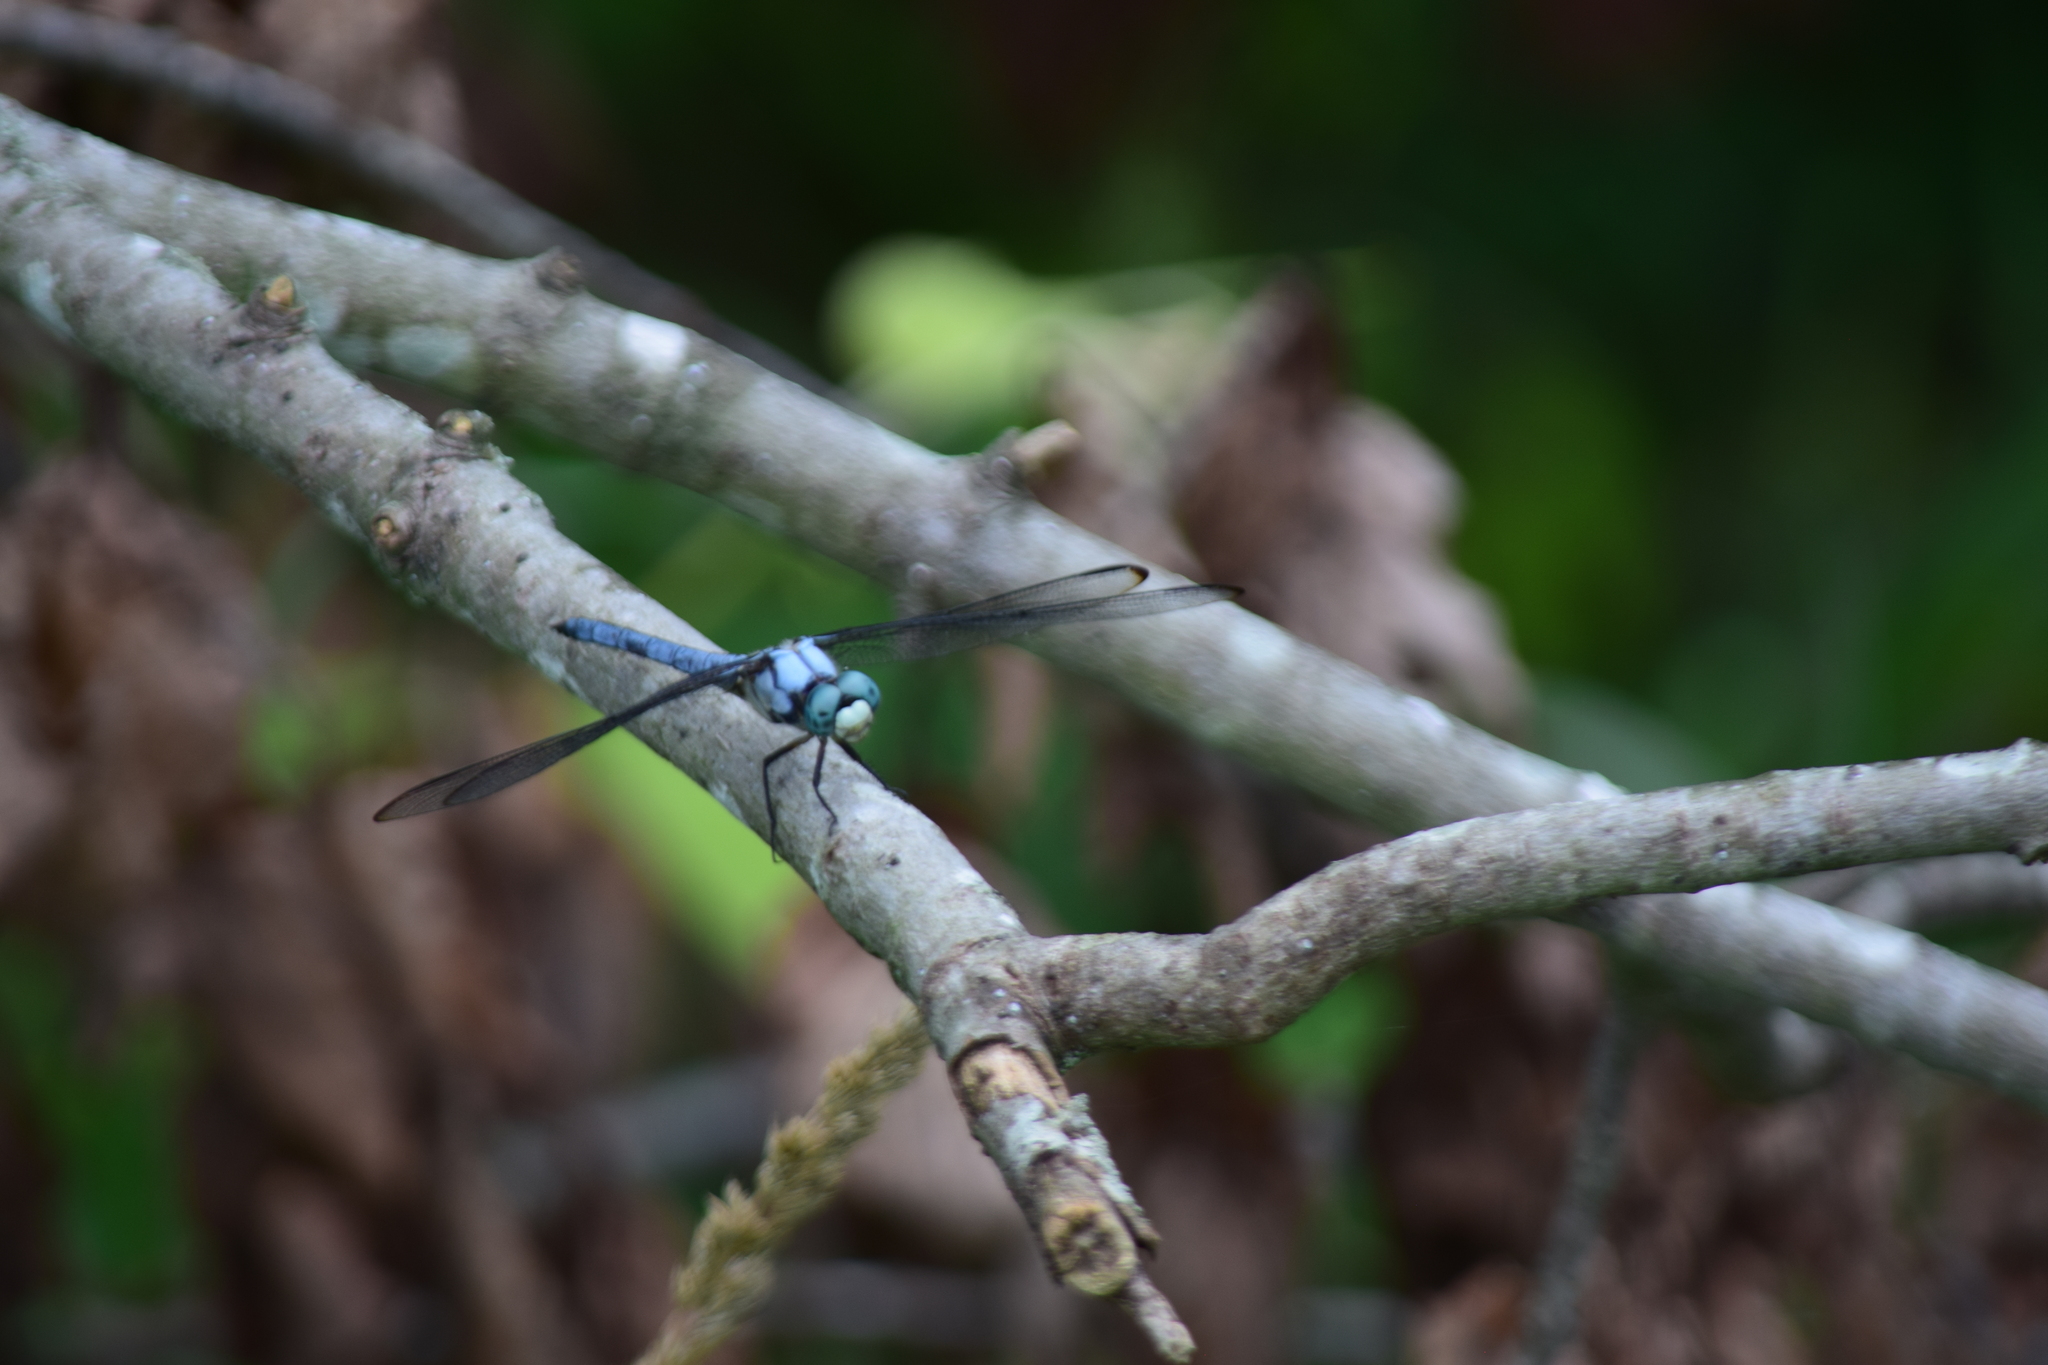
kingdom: Animalia
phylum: Arthropoda
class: Insecta
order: Odonata
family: Libellulidae
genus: Libellula
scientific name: Libellula vibrans
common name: Great blue skimmer
